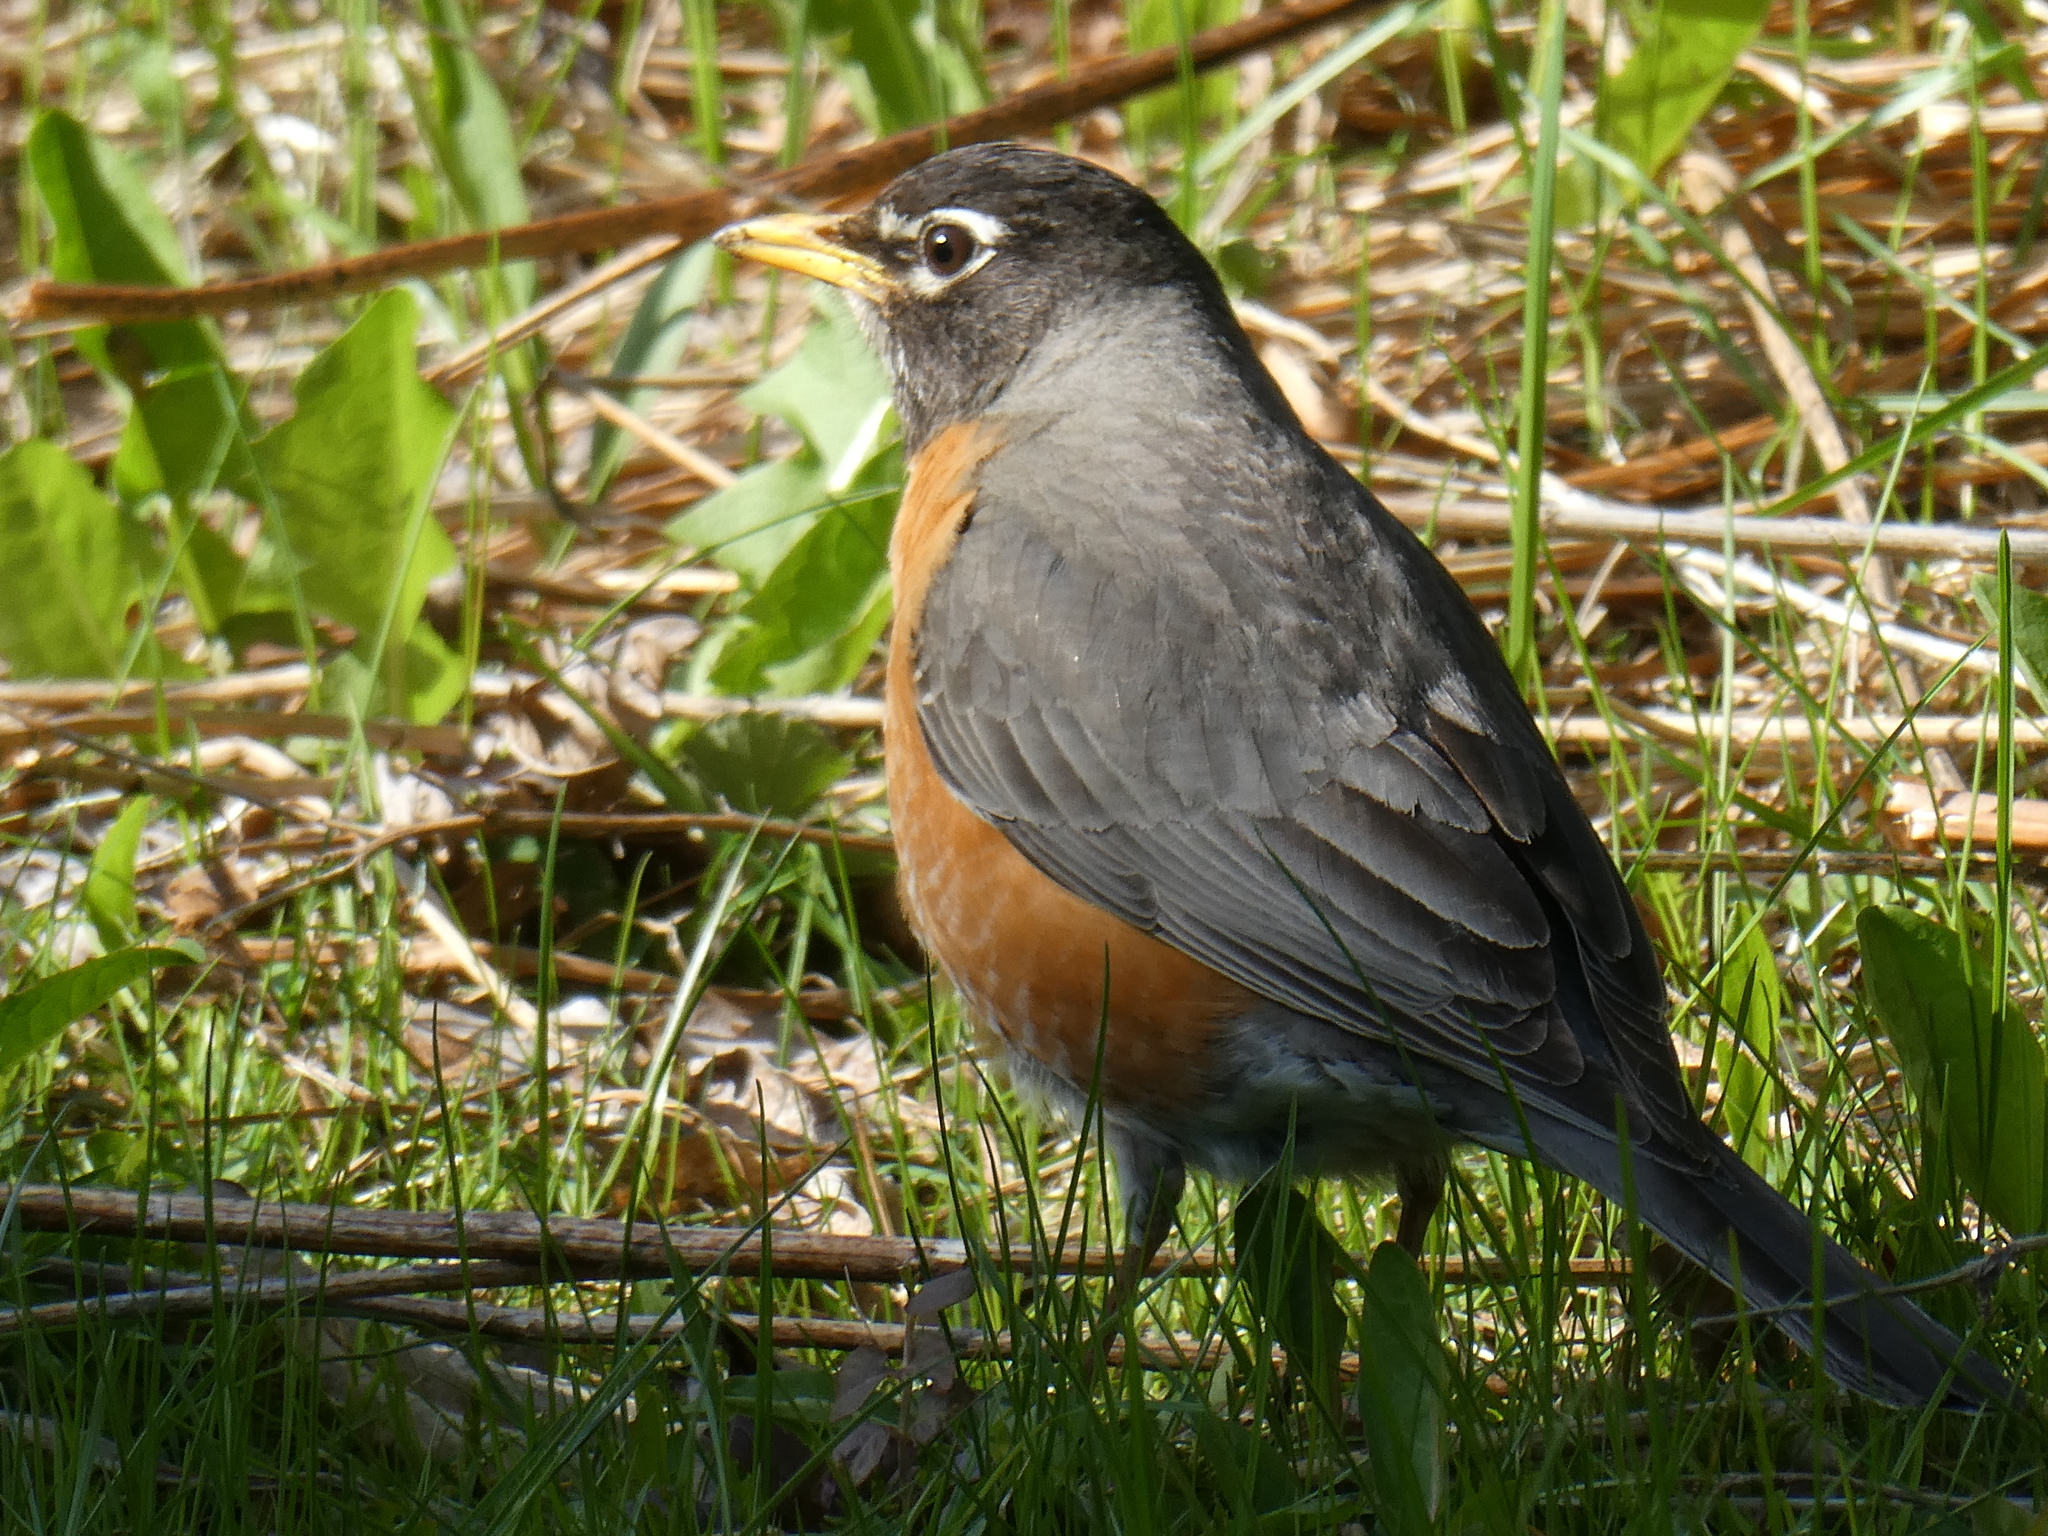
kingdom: Animalia
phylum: Chordata
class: Aves
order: Passeriformes
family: Turdidae
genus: Turdus
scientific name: Turdus migratorius
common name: American robin
